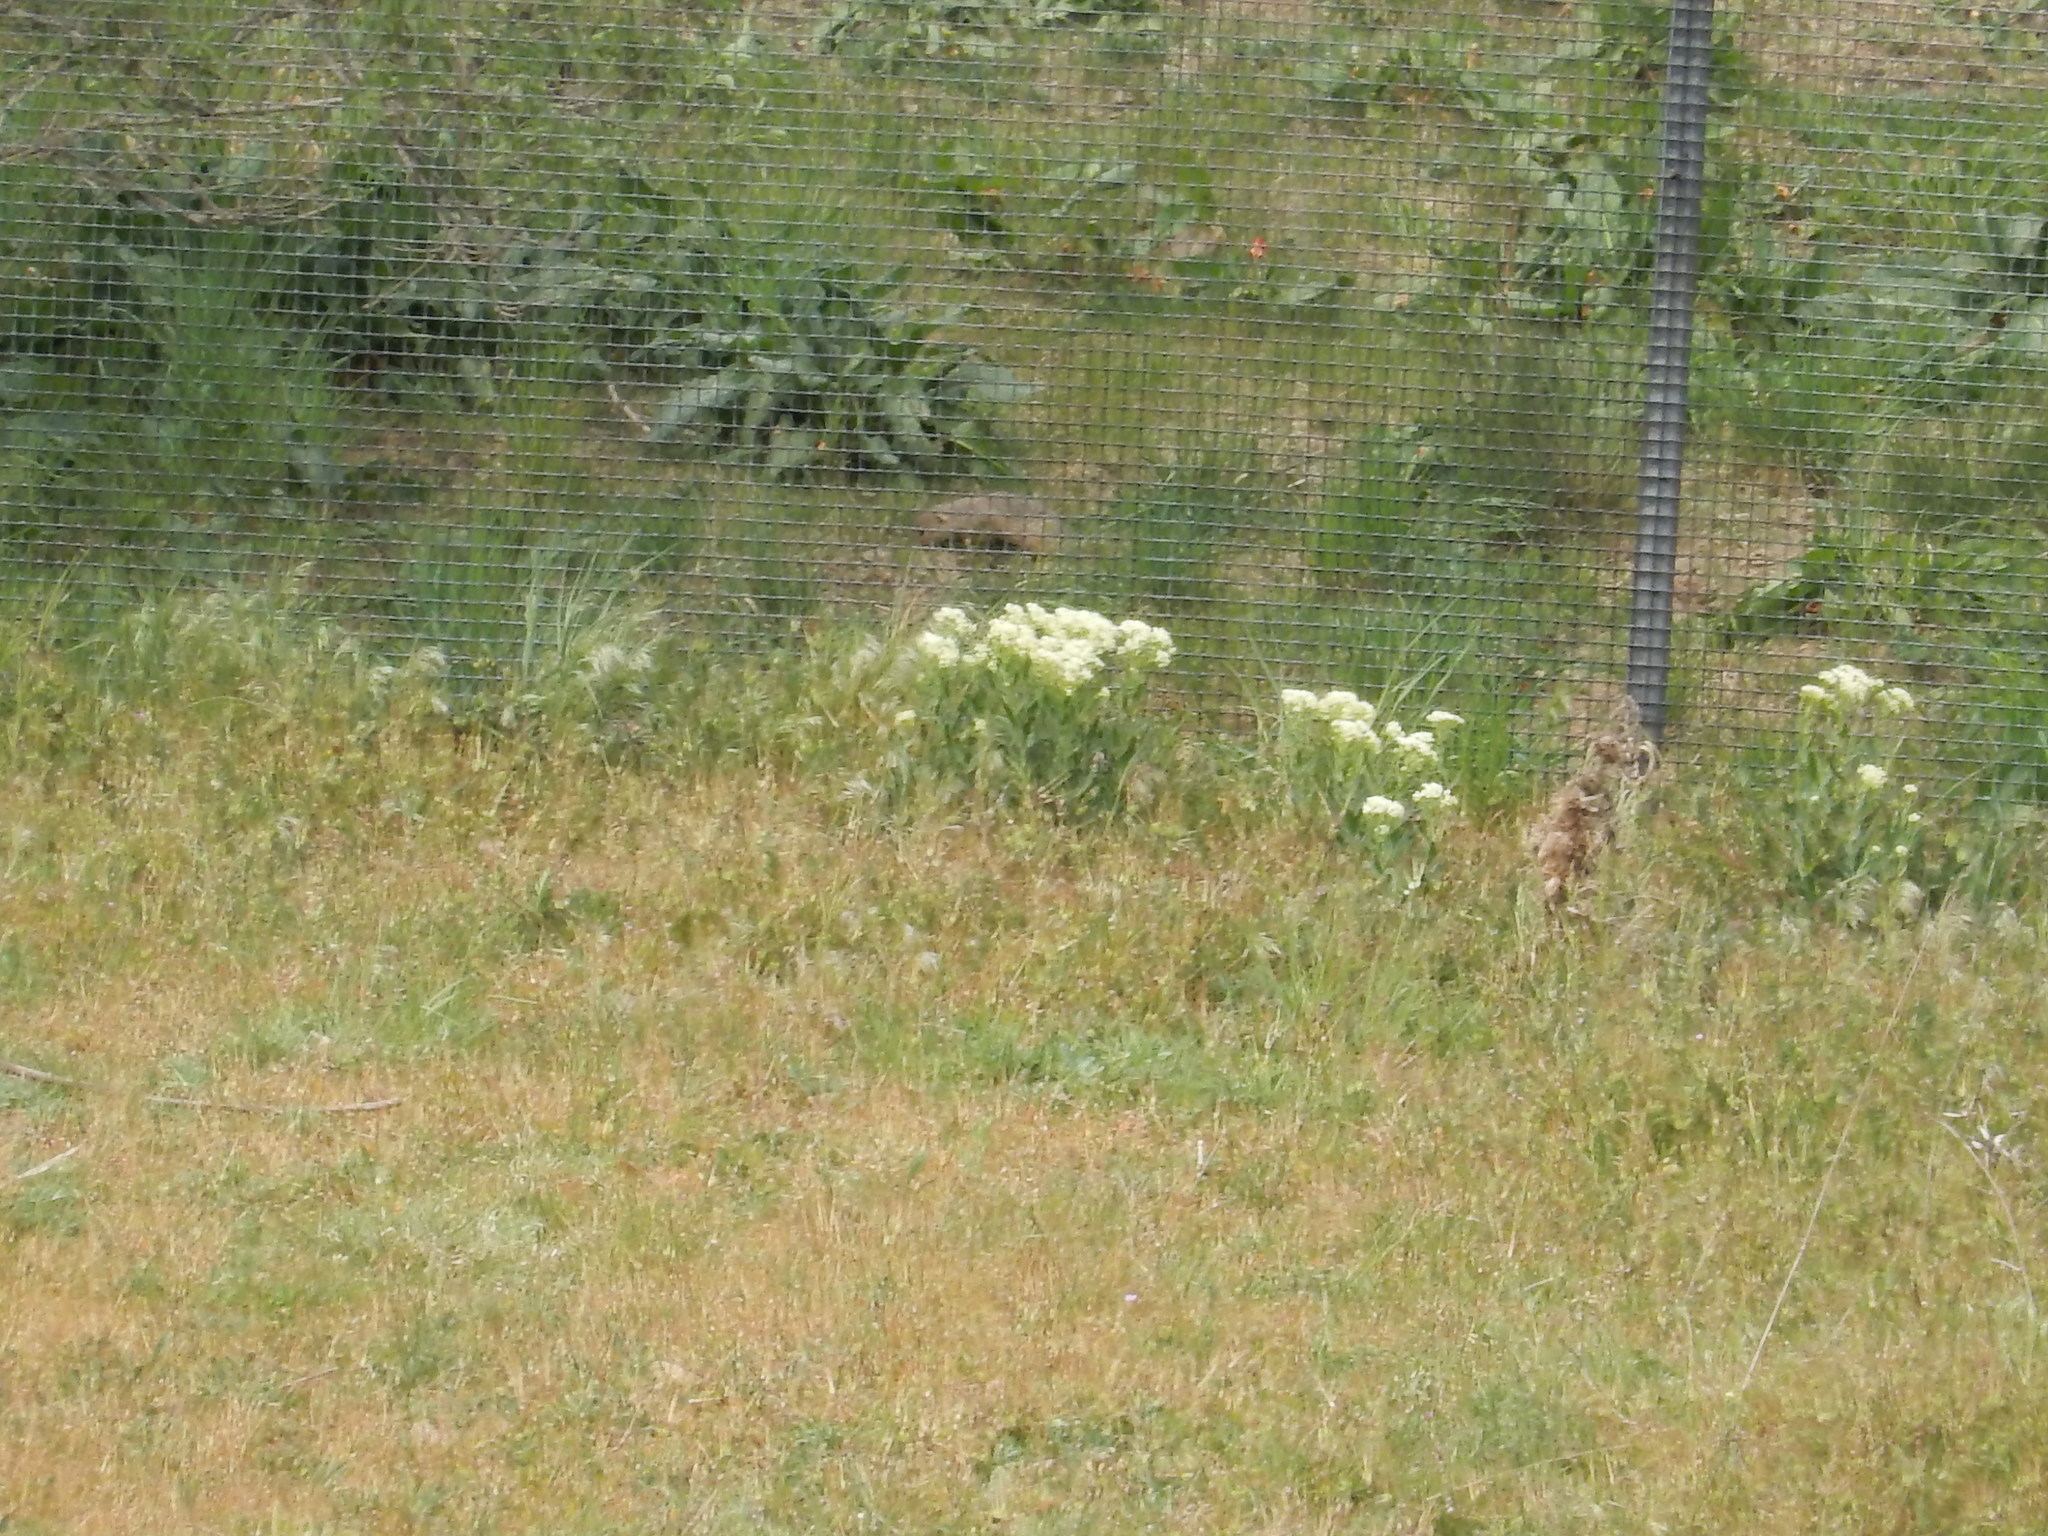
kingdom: Animalia
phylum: Chordata
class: Mammalia
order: Rodentia
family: Sciuridae
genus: Spermophilus
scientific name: Spermophilus citellus
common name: European ground squirrel
